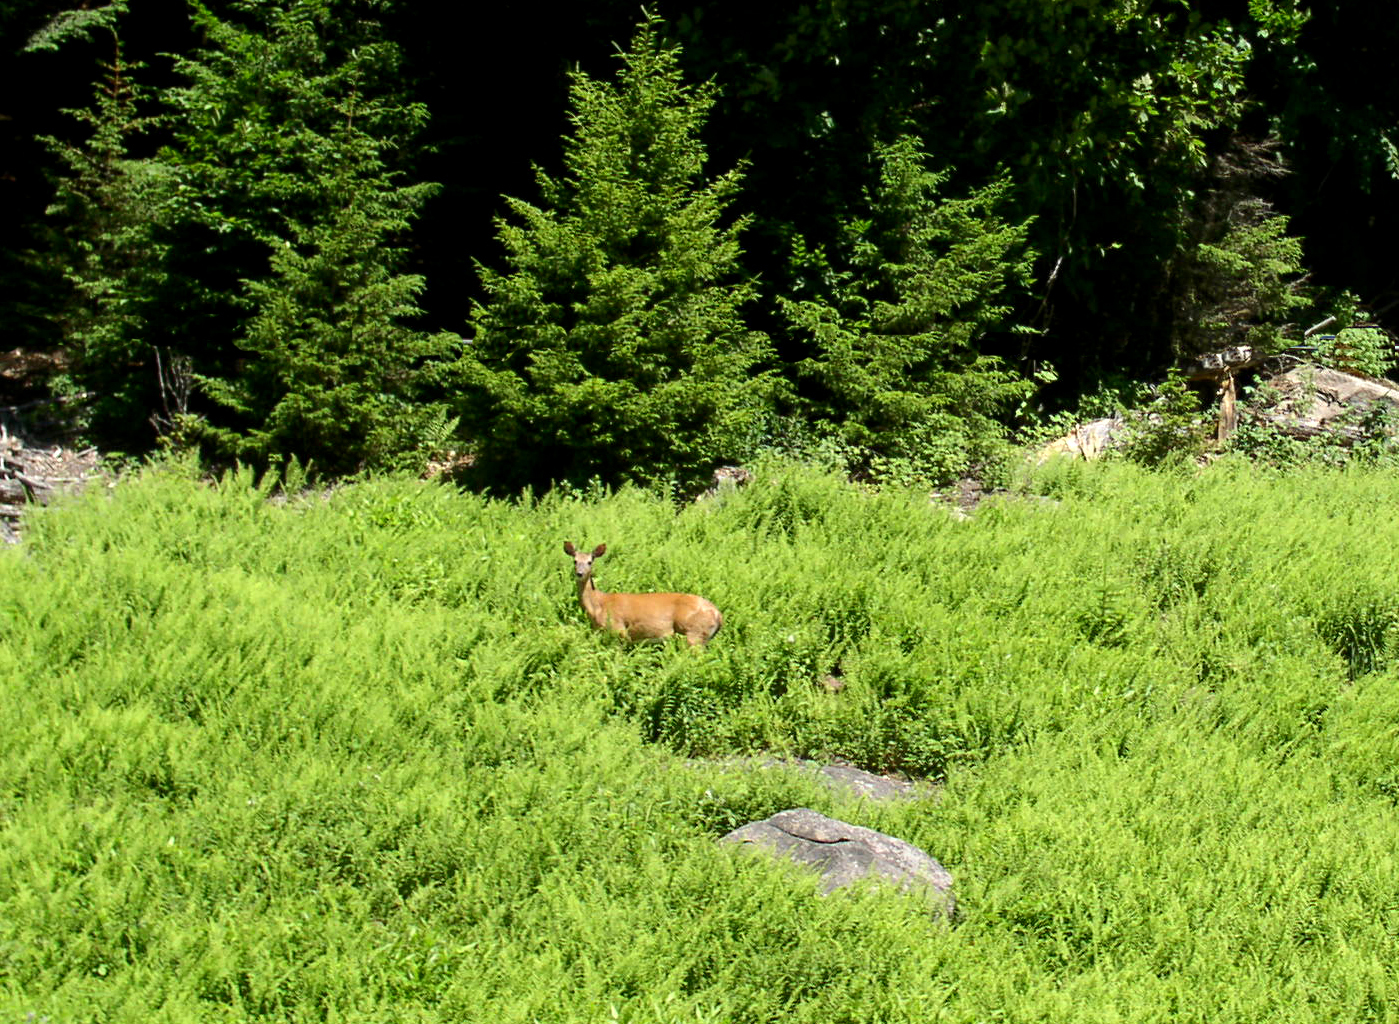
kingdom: Animalia
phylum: Chordata
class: Mammalia
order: Artiodactyla
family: Cervidae
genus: Odocoileus
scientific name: Odocoileus virginianus
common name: White-tailed deer
